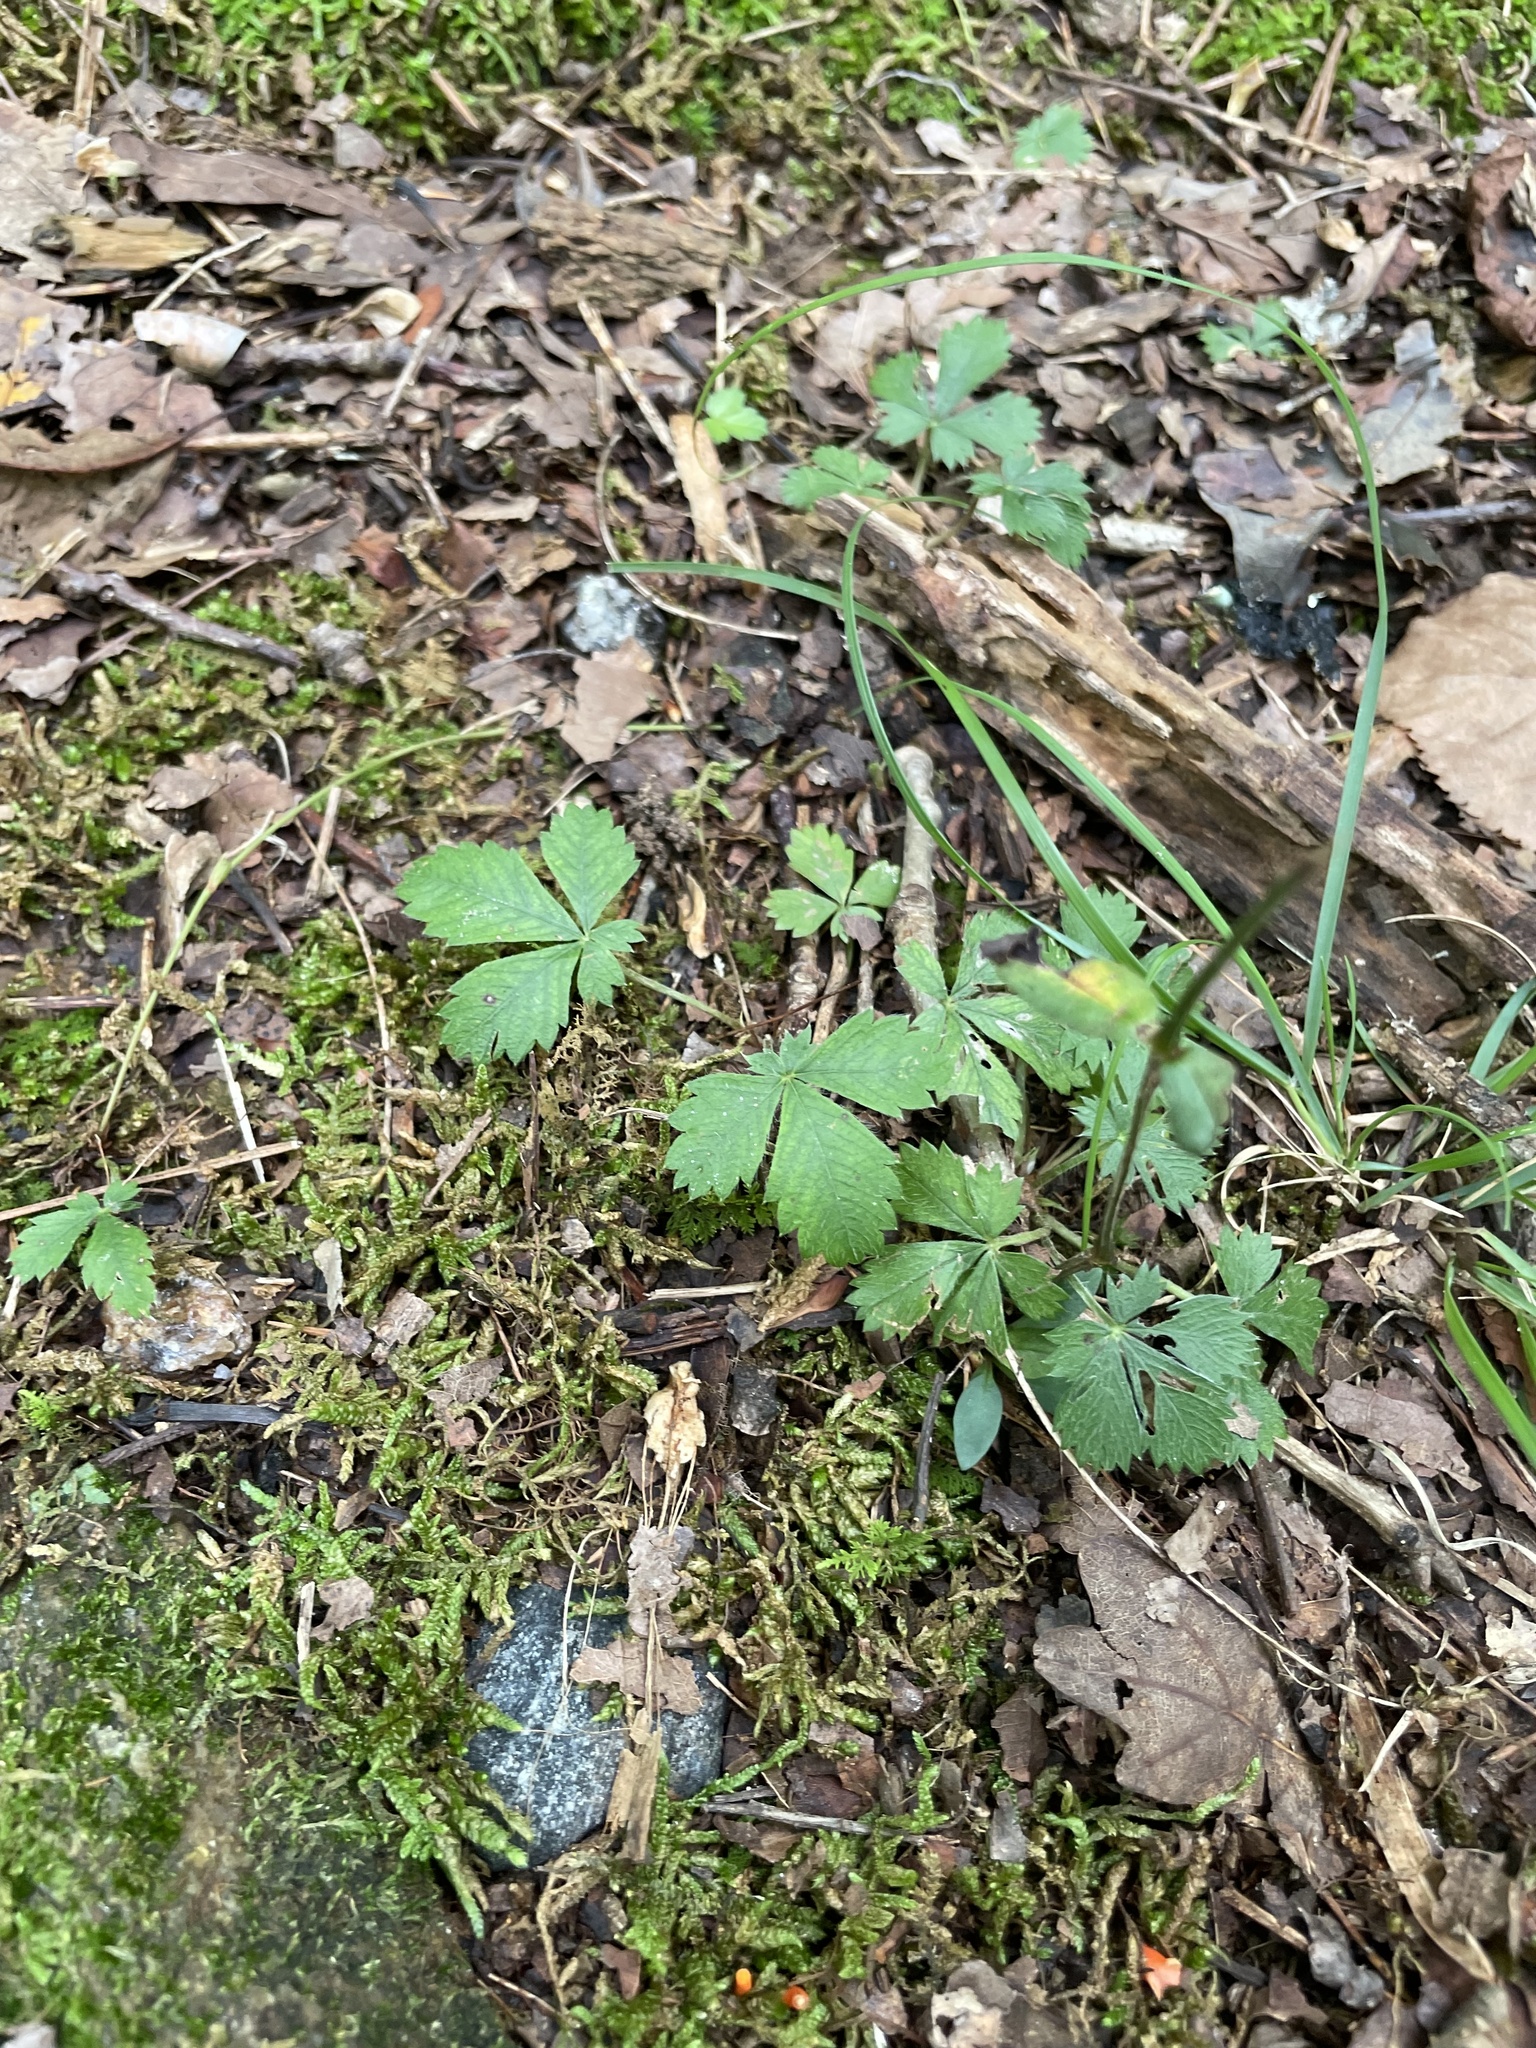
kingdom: Plantae
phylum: Tracheophyta
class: Magnoliopsida
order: Rosales
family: Rosaceae
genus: Potentilla
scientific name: Potentilla canadensis
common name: Canada cinquefoil
